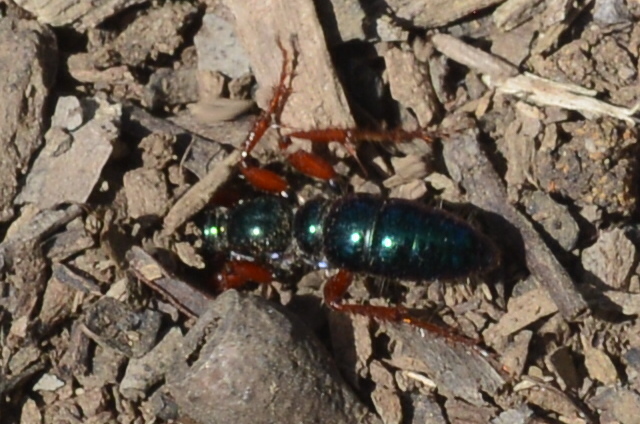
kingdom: Animalia
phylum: Arthropoda
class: Insecta
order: Hymenoptera
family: Tiphiidae
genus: Diamma
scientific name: Diamma
